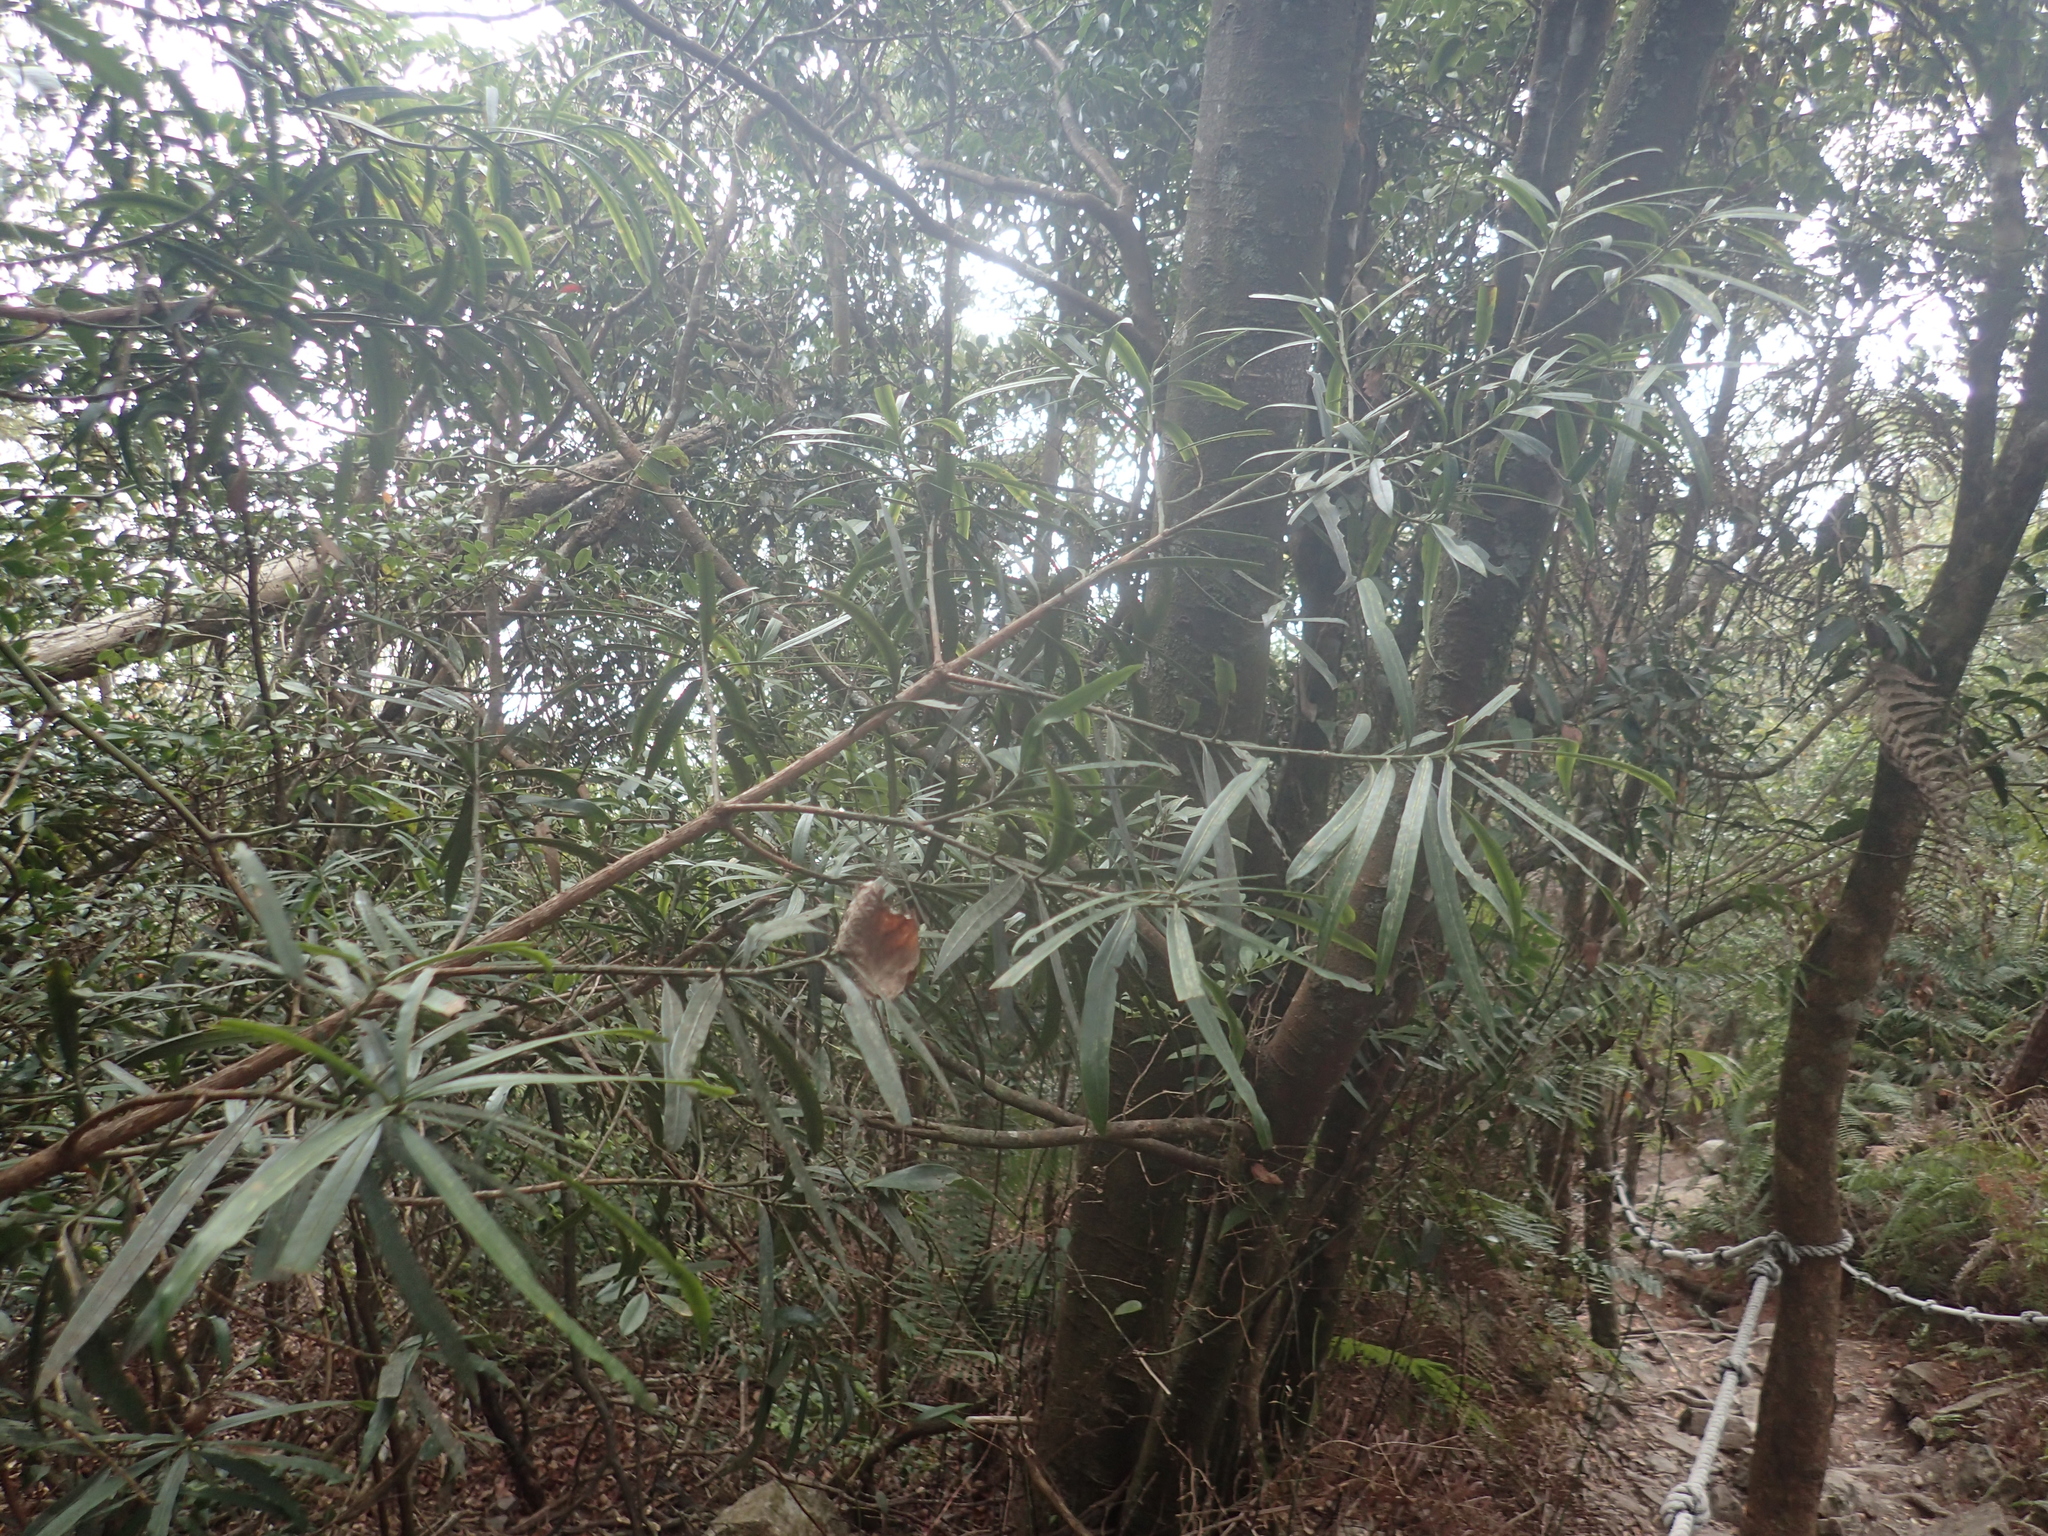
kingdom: Plantae
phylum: Tracheophyta
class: Pinopsida
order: Pinales
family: Podocarpaceae
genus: Podocarpus
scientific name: Podocarpus fasciculus
